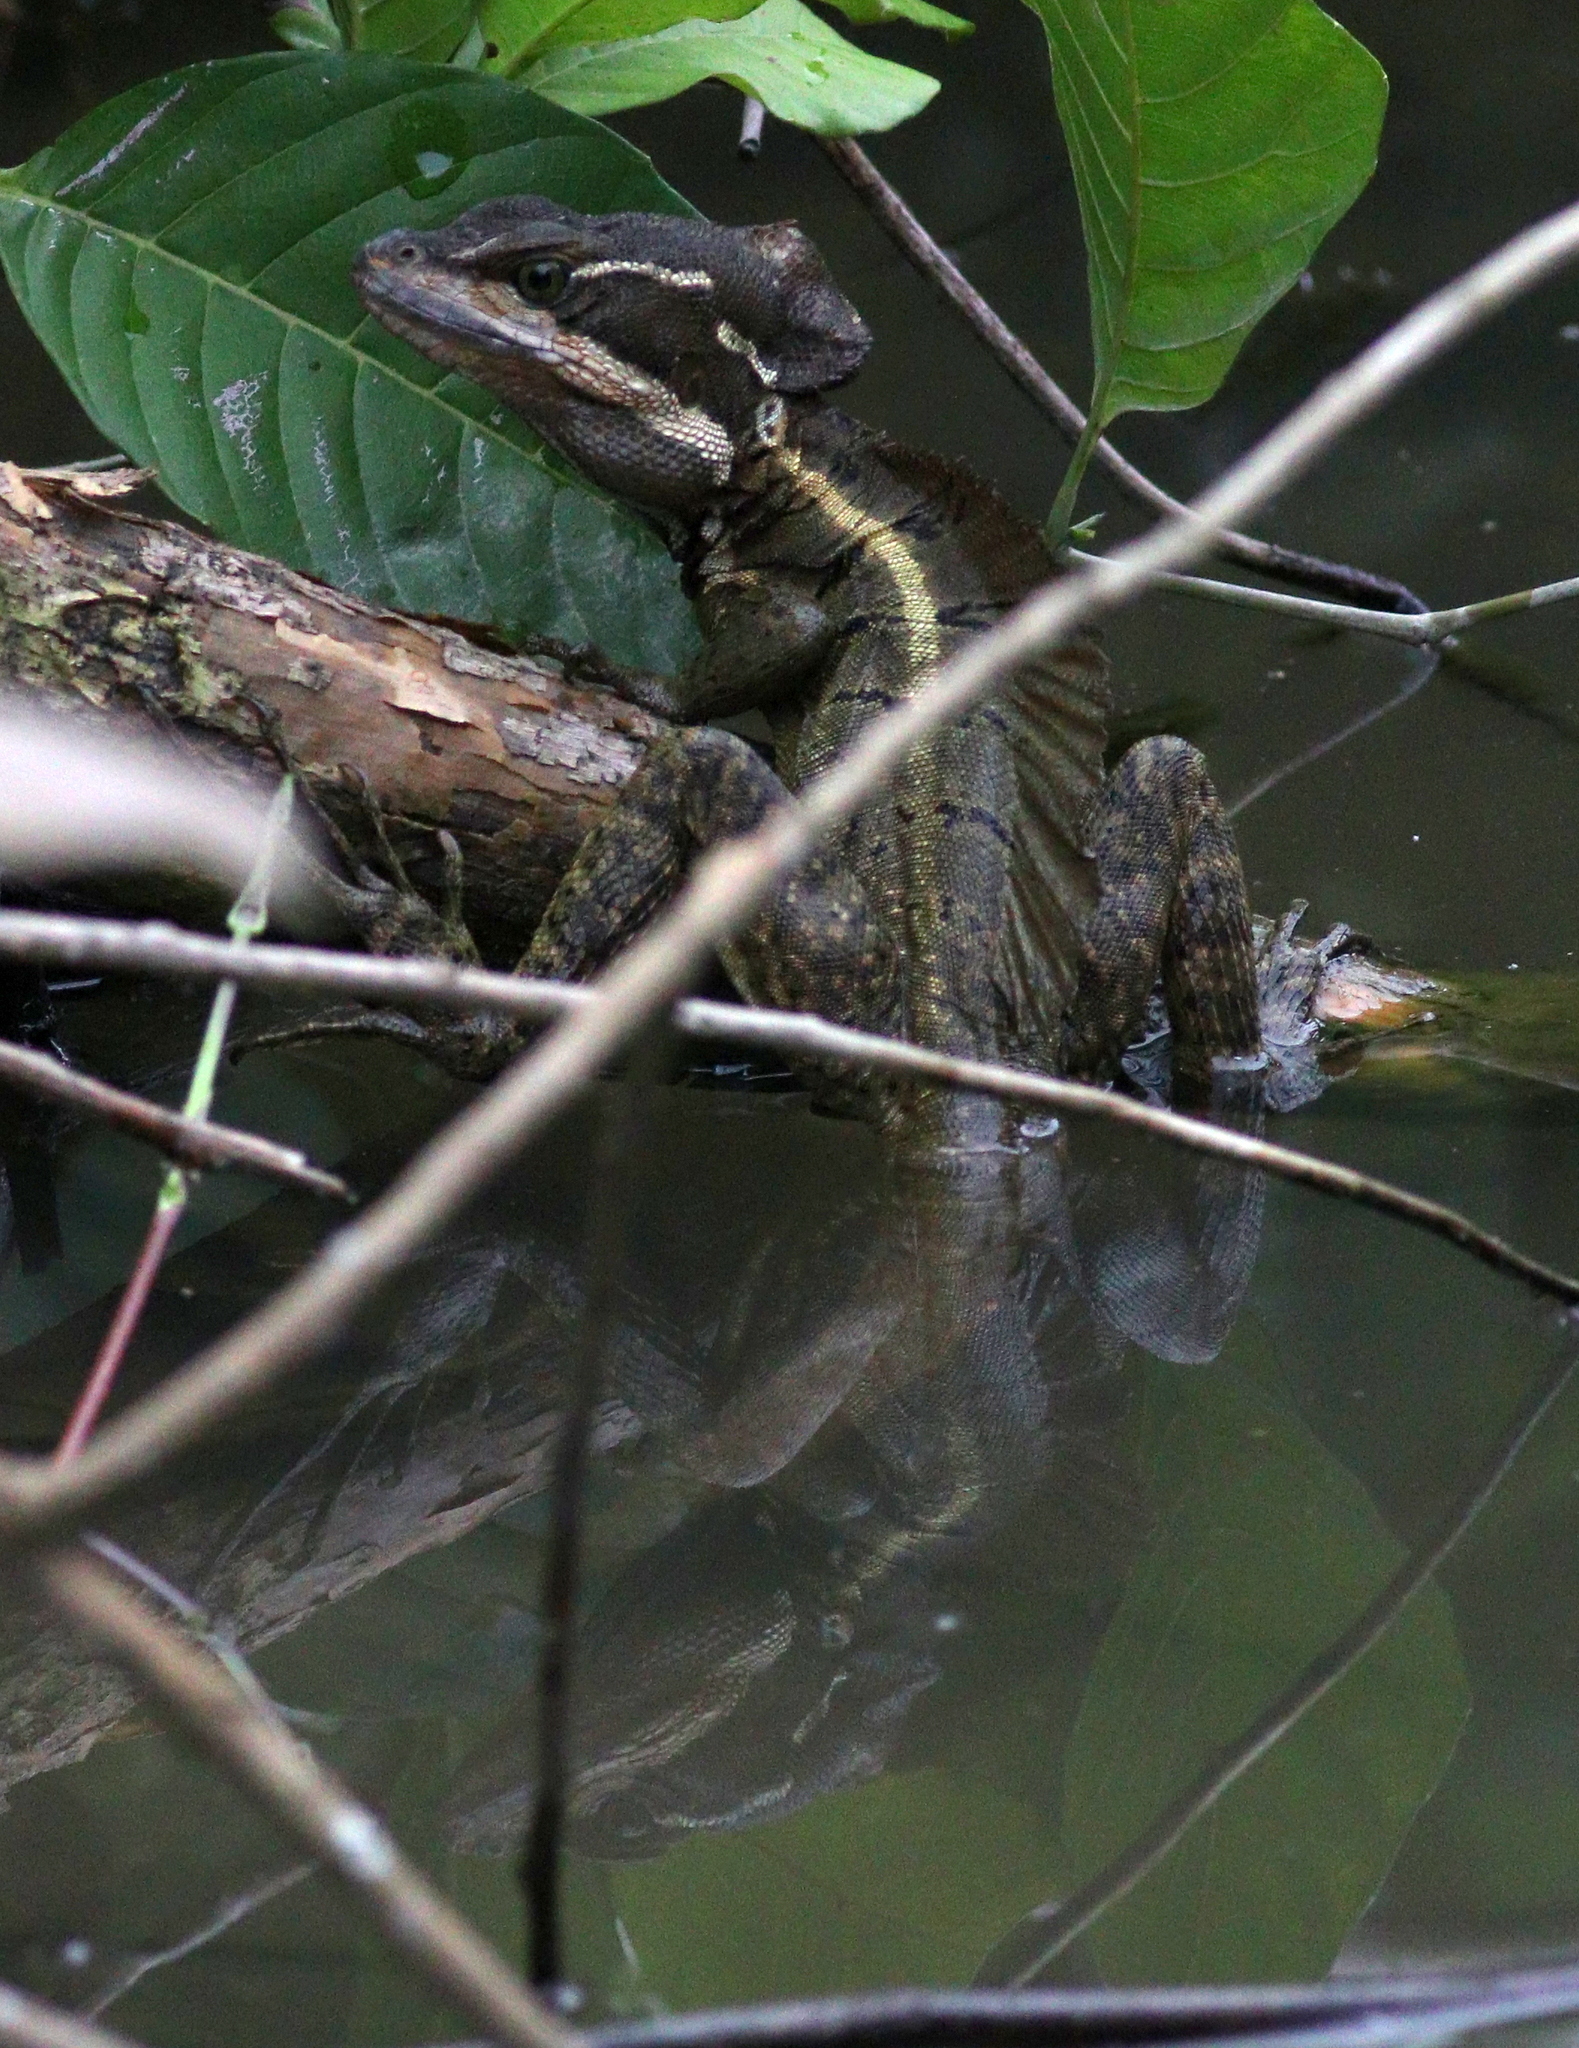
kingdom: Animalia
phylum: Chordata
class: Squamata
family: Corytophanidae
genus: Basiliscus
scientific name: Basiliscus basiliscus
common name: Common basilisk
